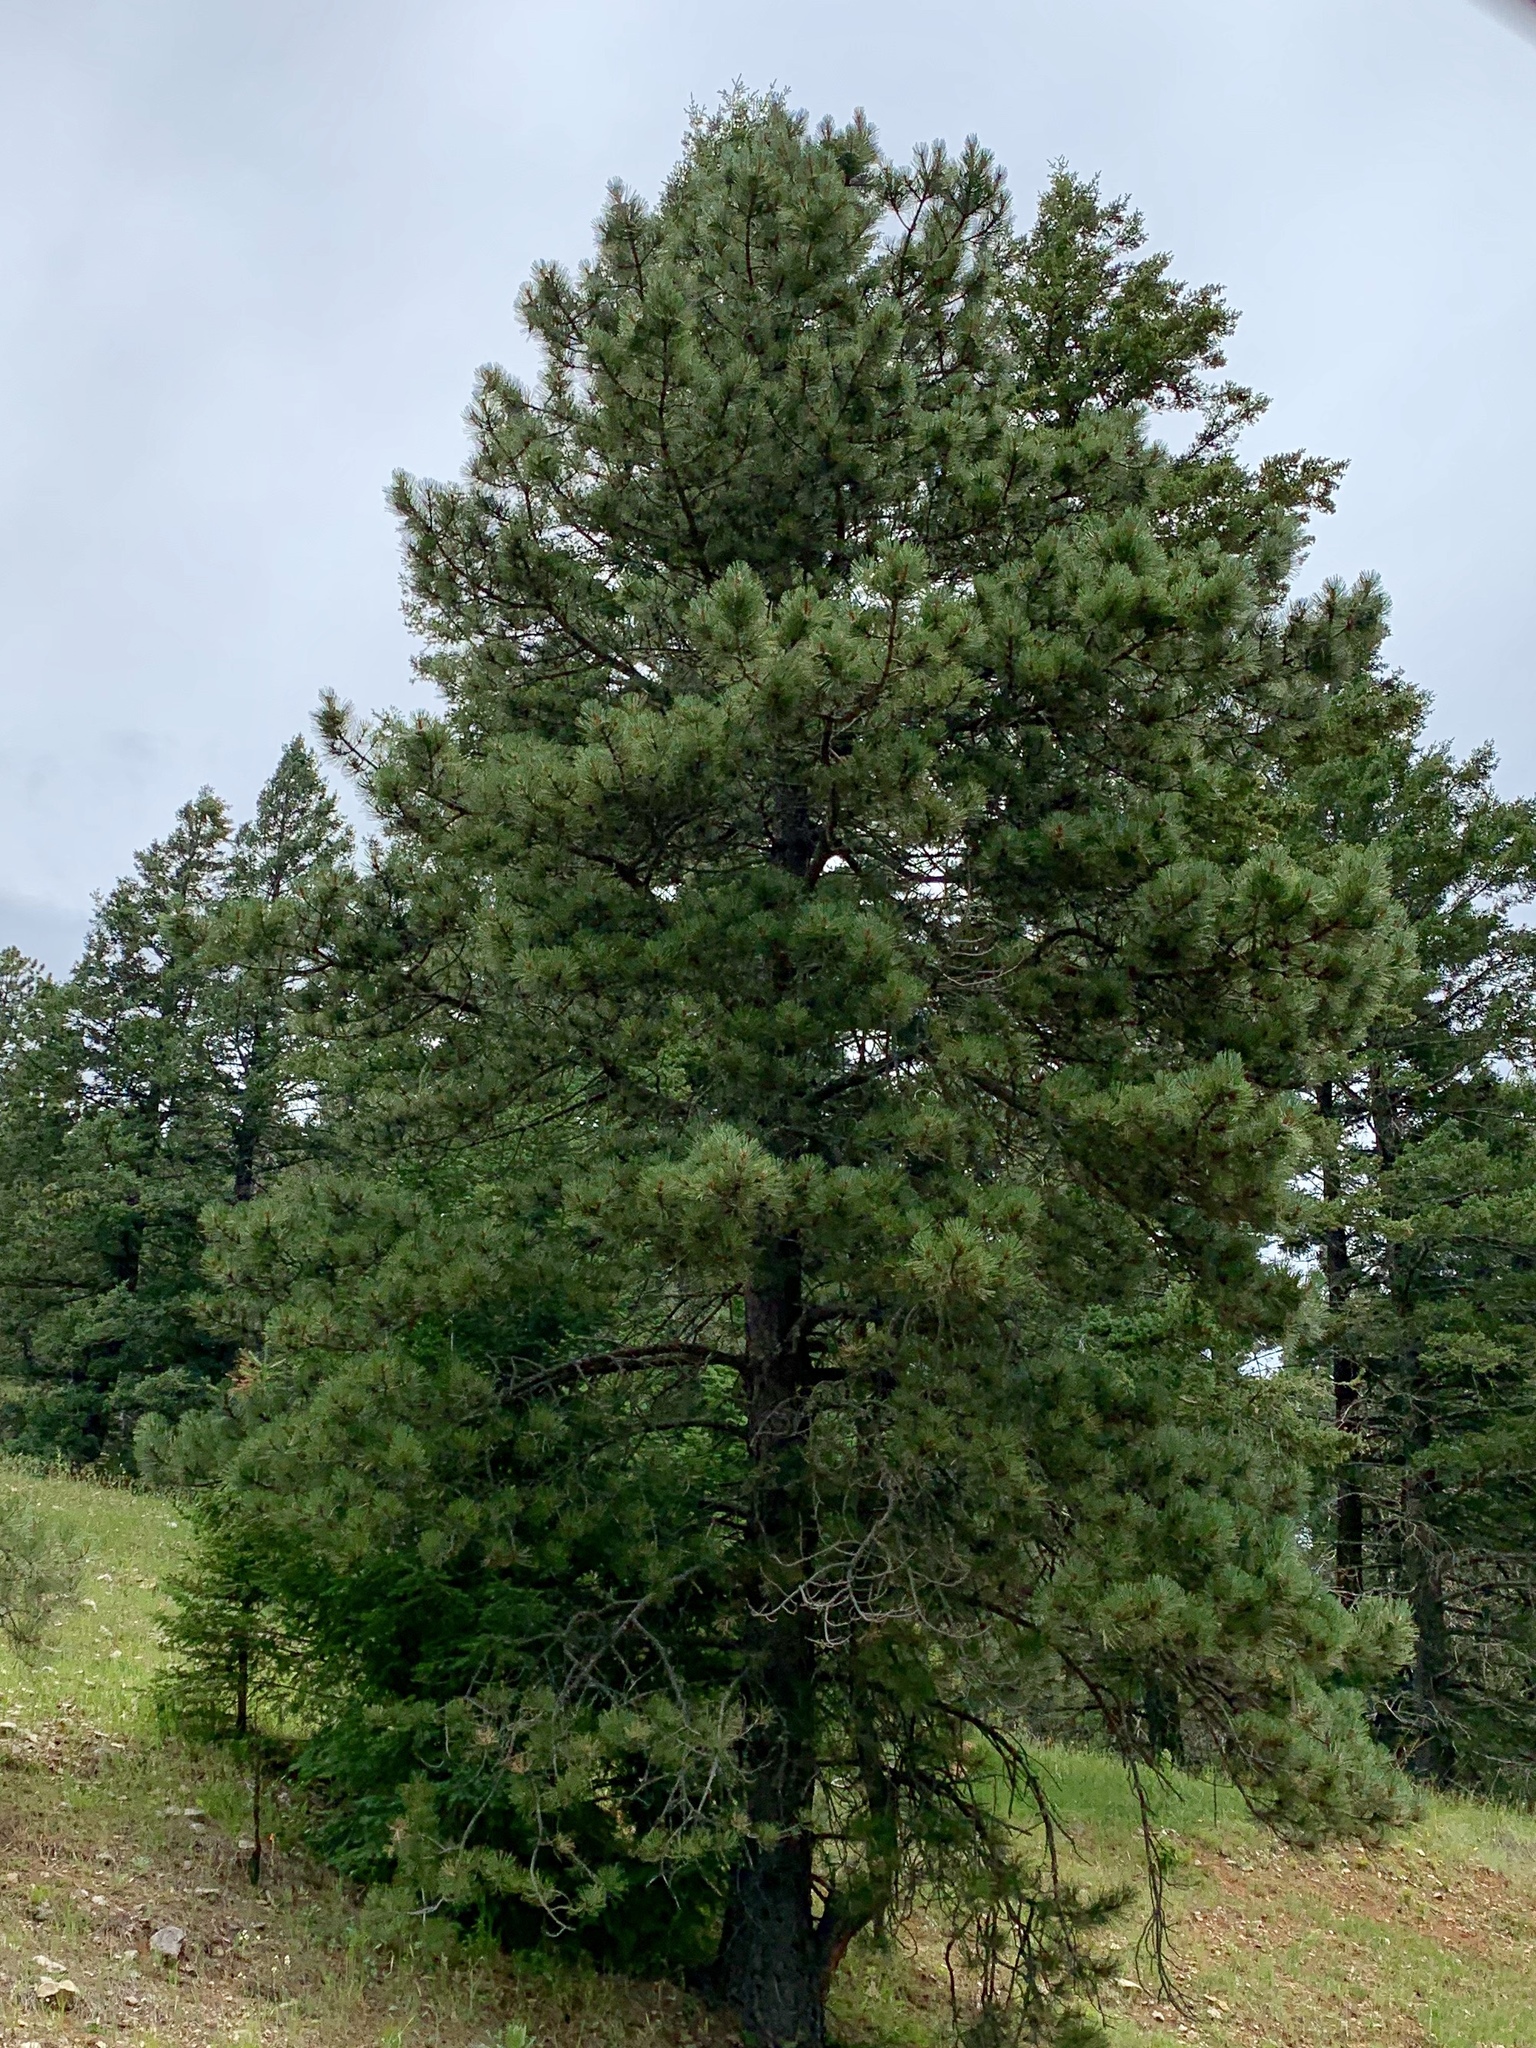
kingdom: Plantae
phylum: Tracheophyta
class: Pinopsida
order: Pinales
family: Pinaceae
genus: Pinus
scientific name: Pinus ponderosa
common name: Western yellow-pine
